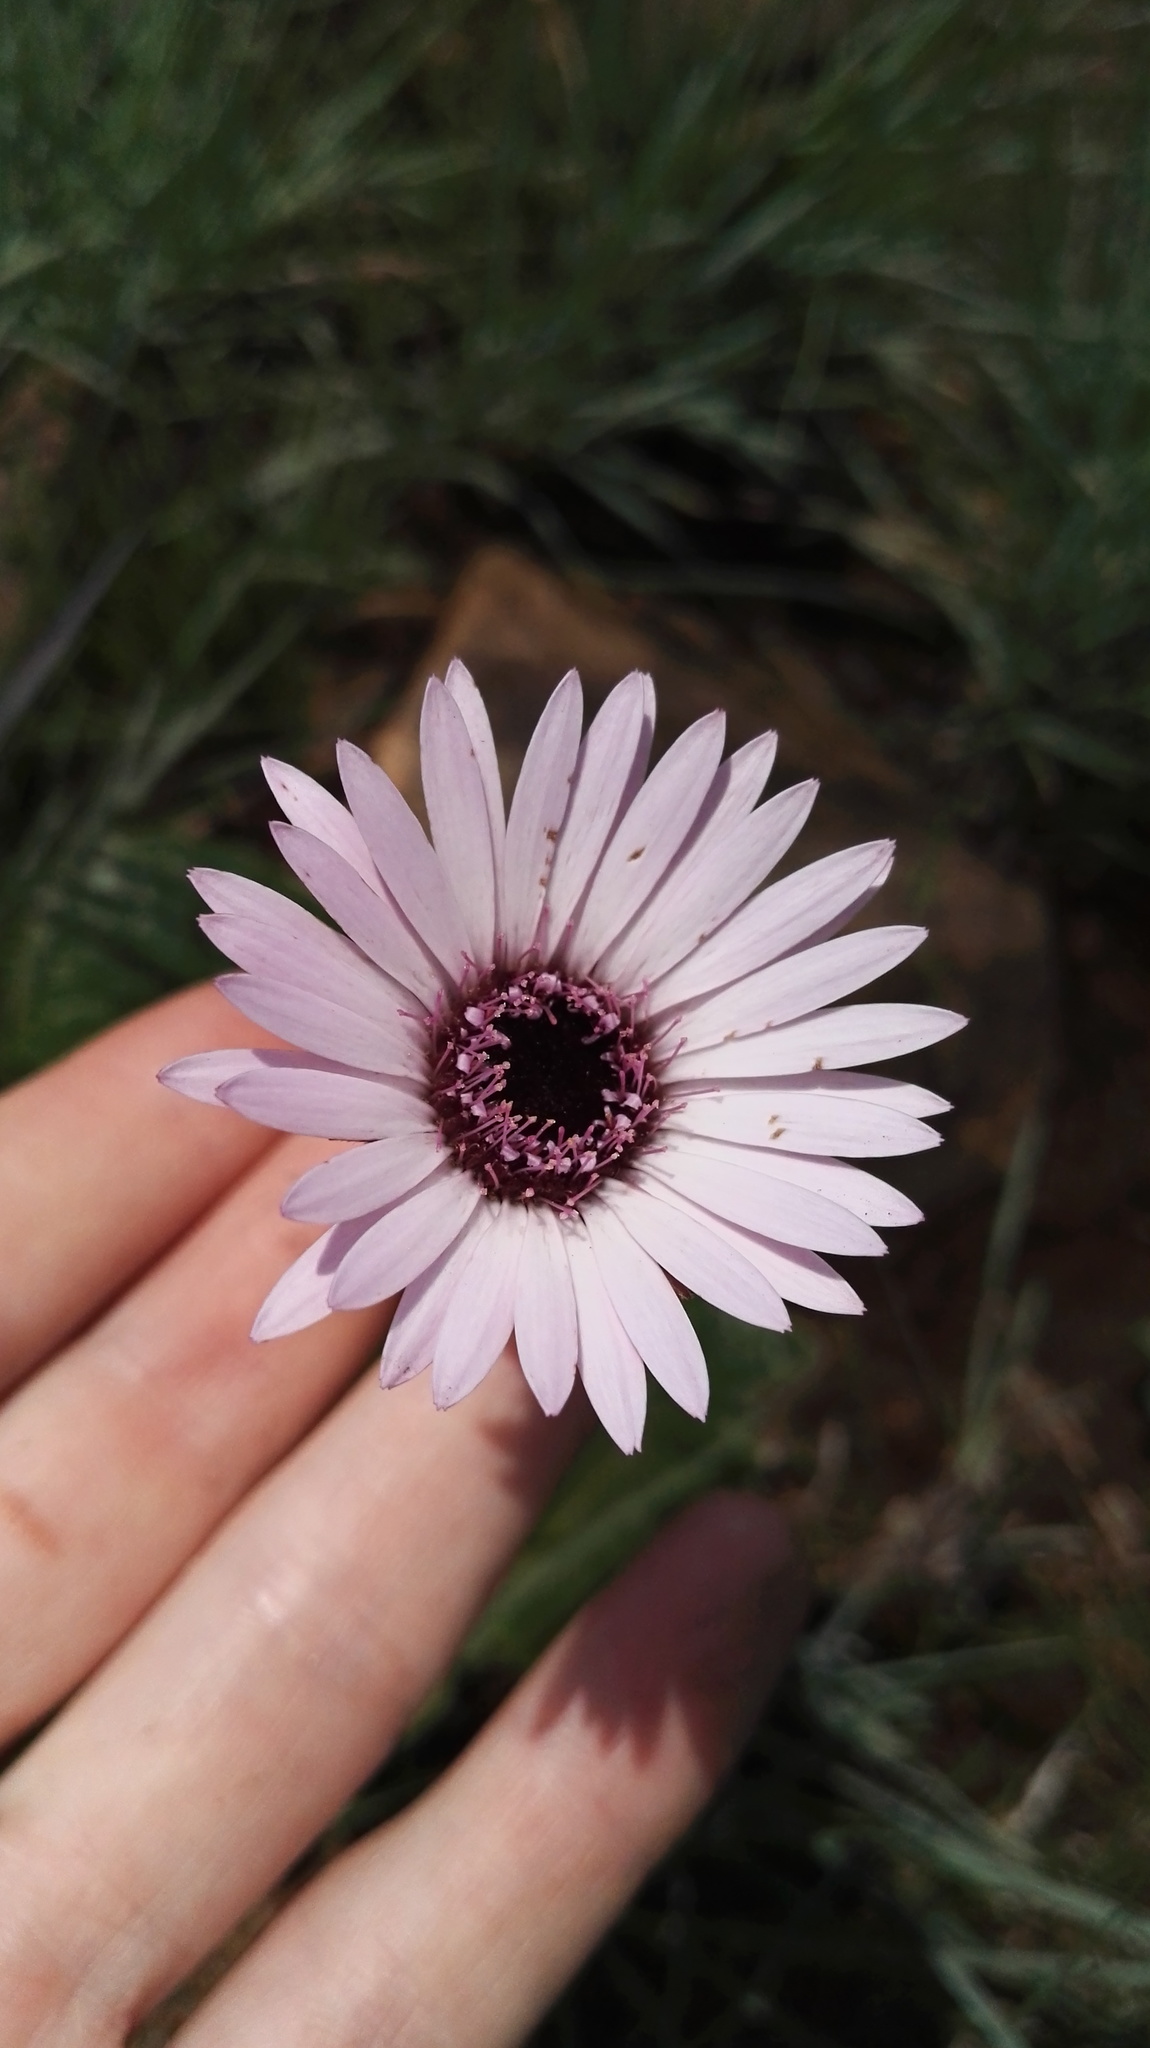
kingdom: Plantae
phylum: Tracheophyta
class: Magnoliopsida
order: Asterales
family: Asteraceae
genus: Gerbera
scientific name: Gerbera viridifolia
